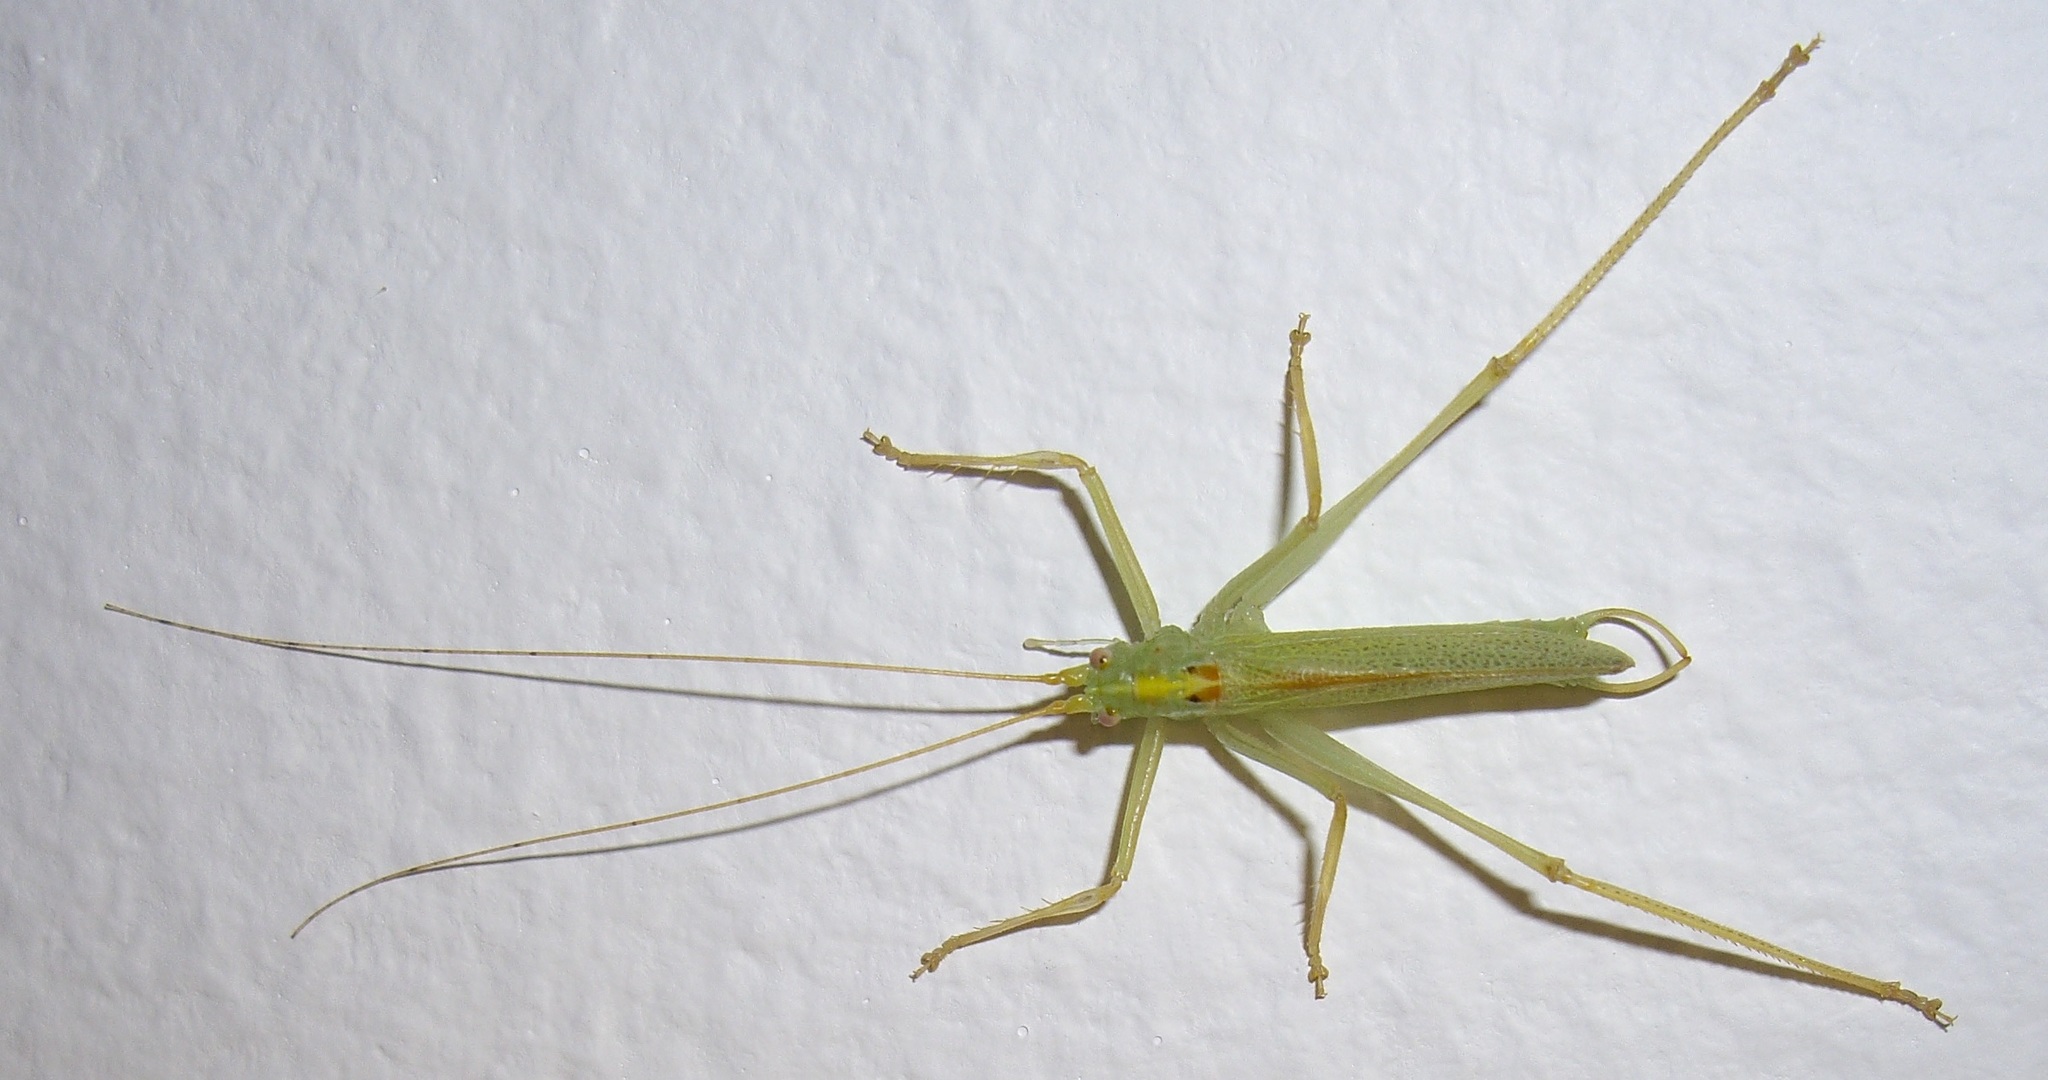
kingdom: Animalia
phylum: Arthropoda
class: Insecta
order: Orthoptera
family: Tettigoniidae
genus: Meconema
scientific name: Meconema thalassinum
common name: Oak bush-cricket
